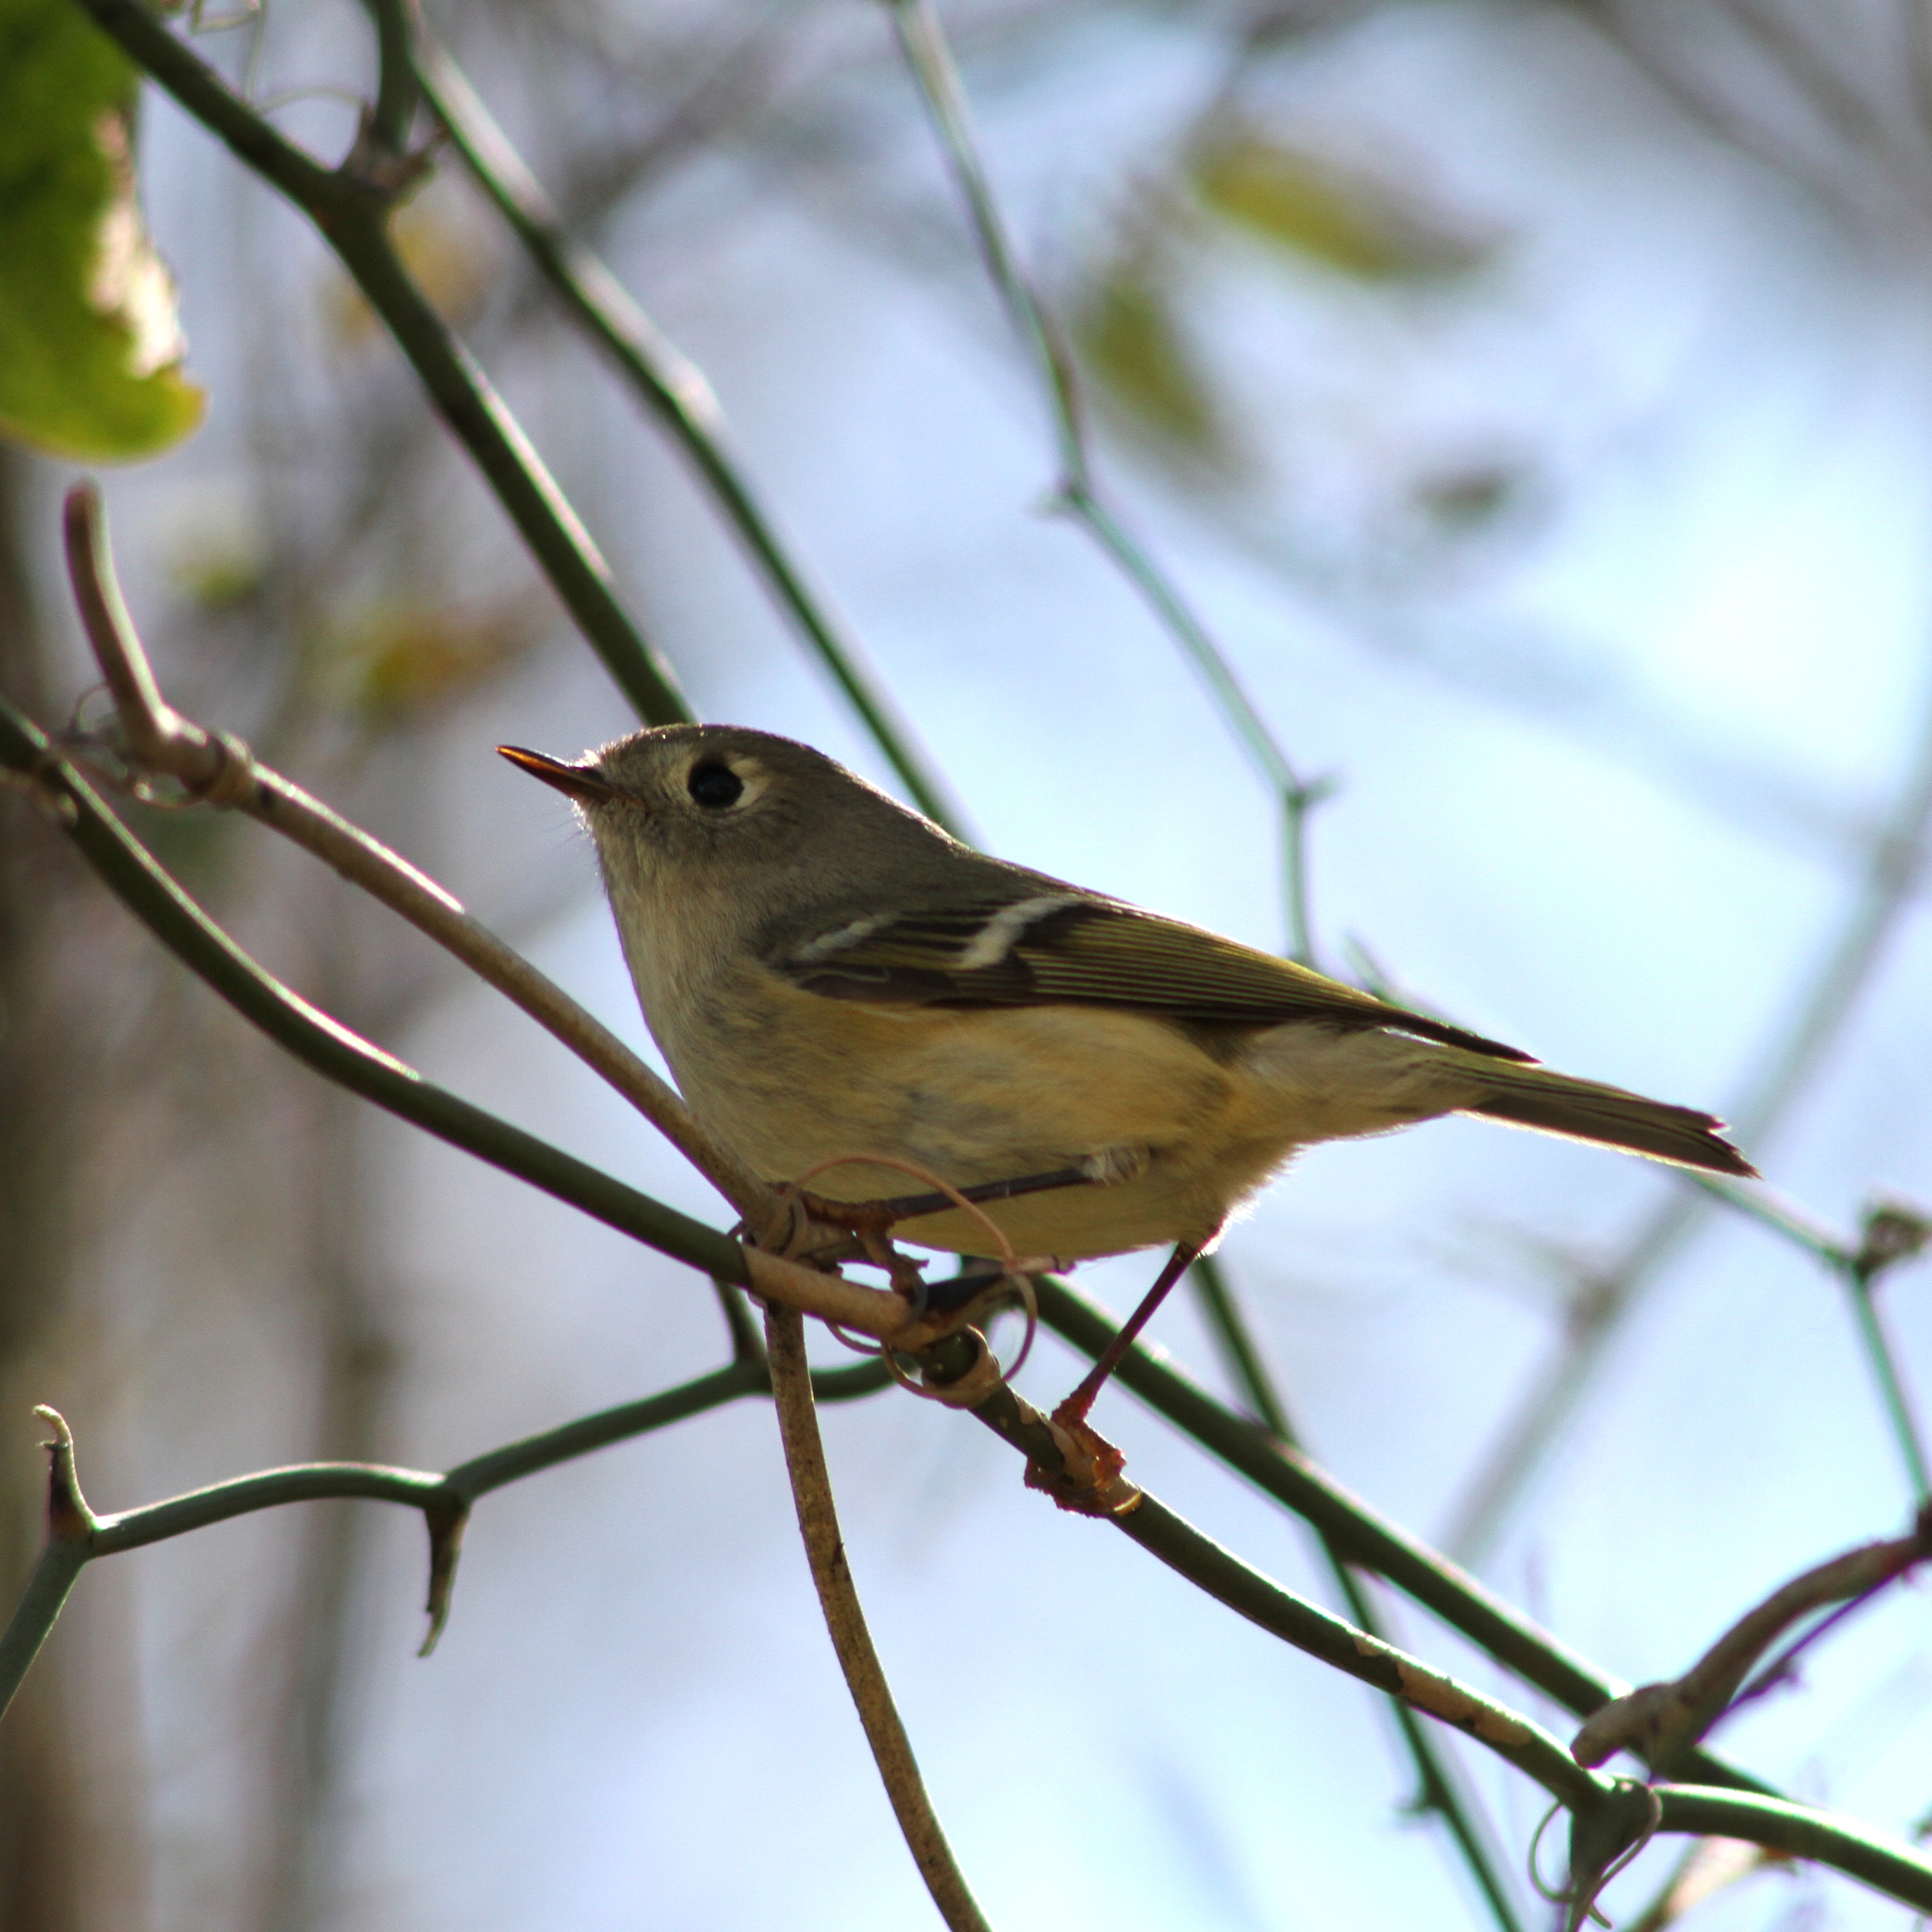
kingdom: Animalia
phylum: Chordata
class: Aves
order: Passeriformes
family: Regulidae
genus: Regulus
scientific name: Regulus calendula
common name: Ruby-crowned kinglet
